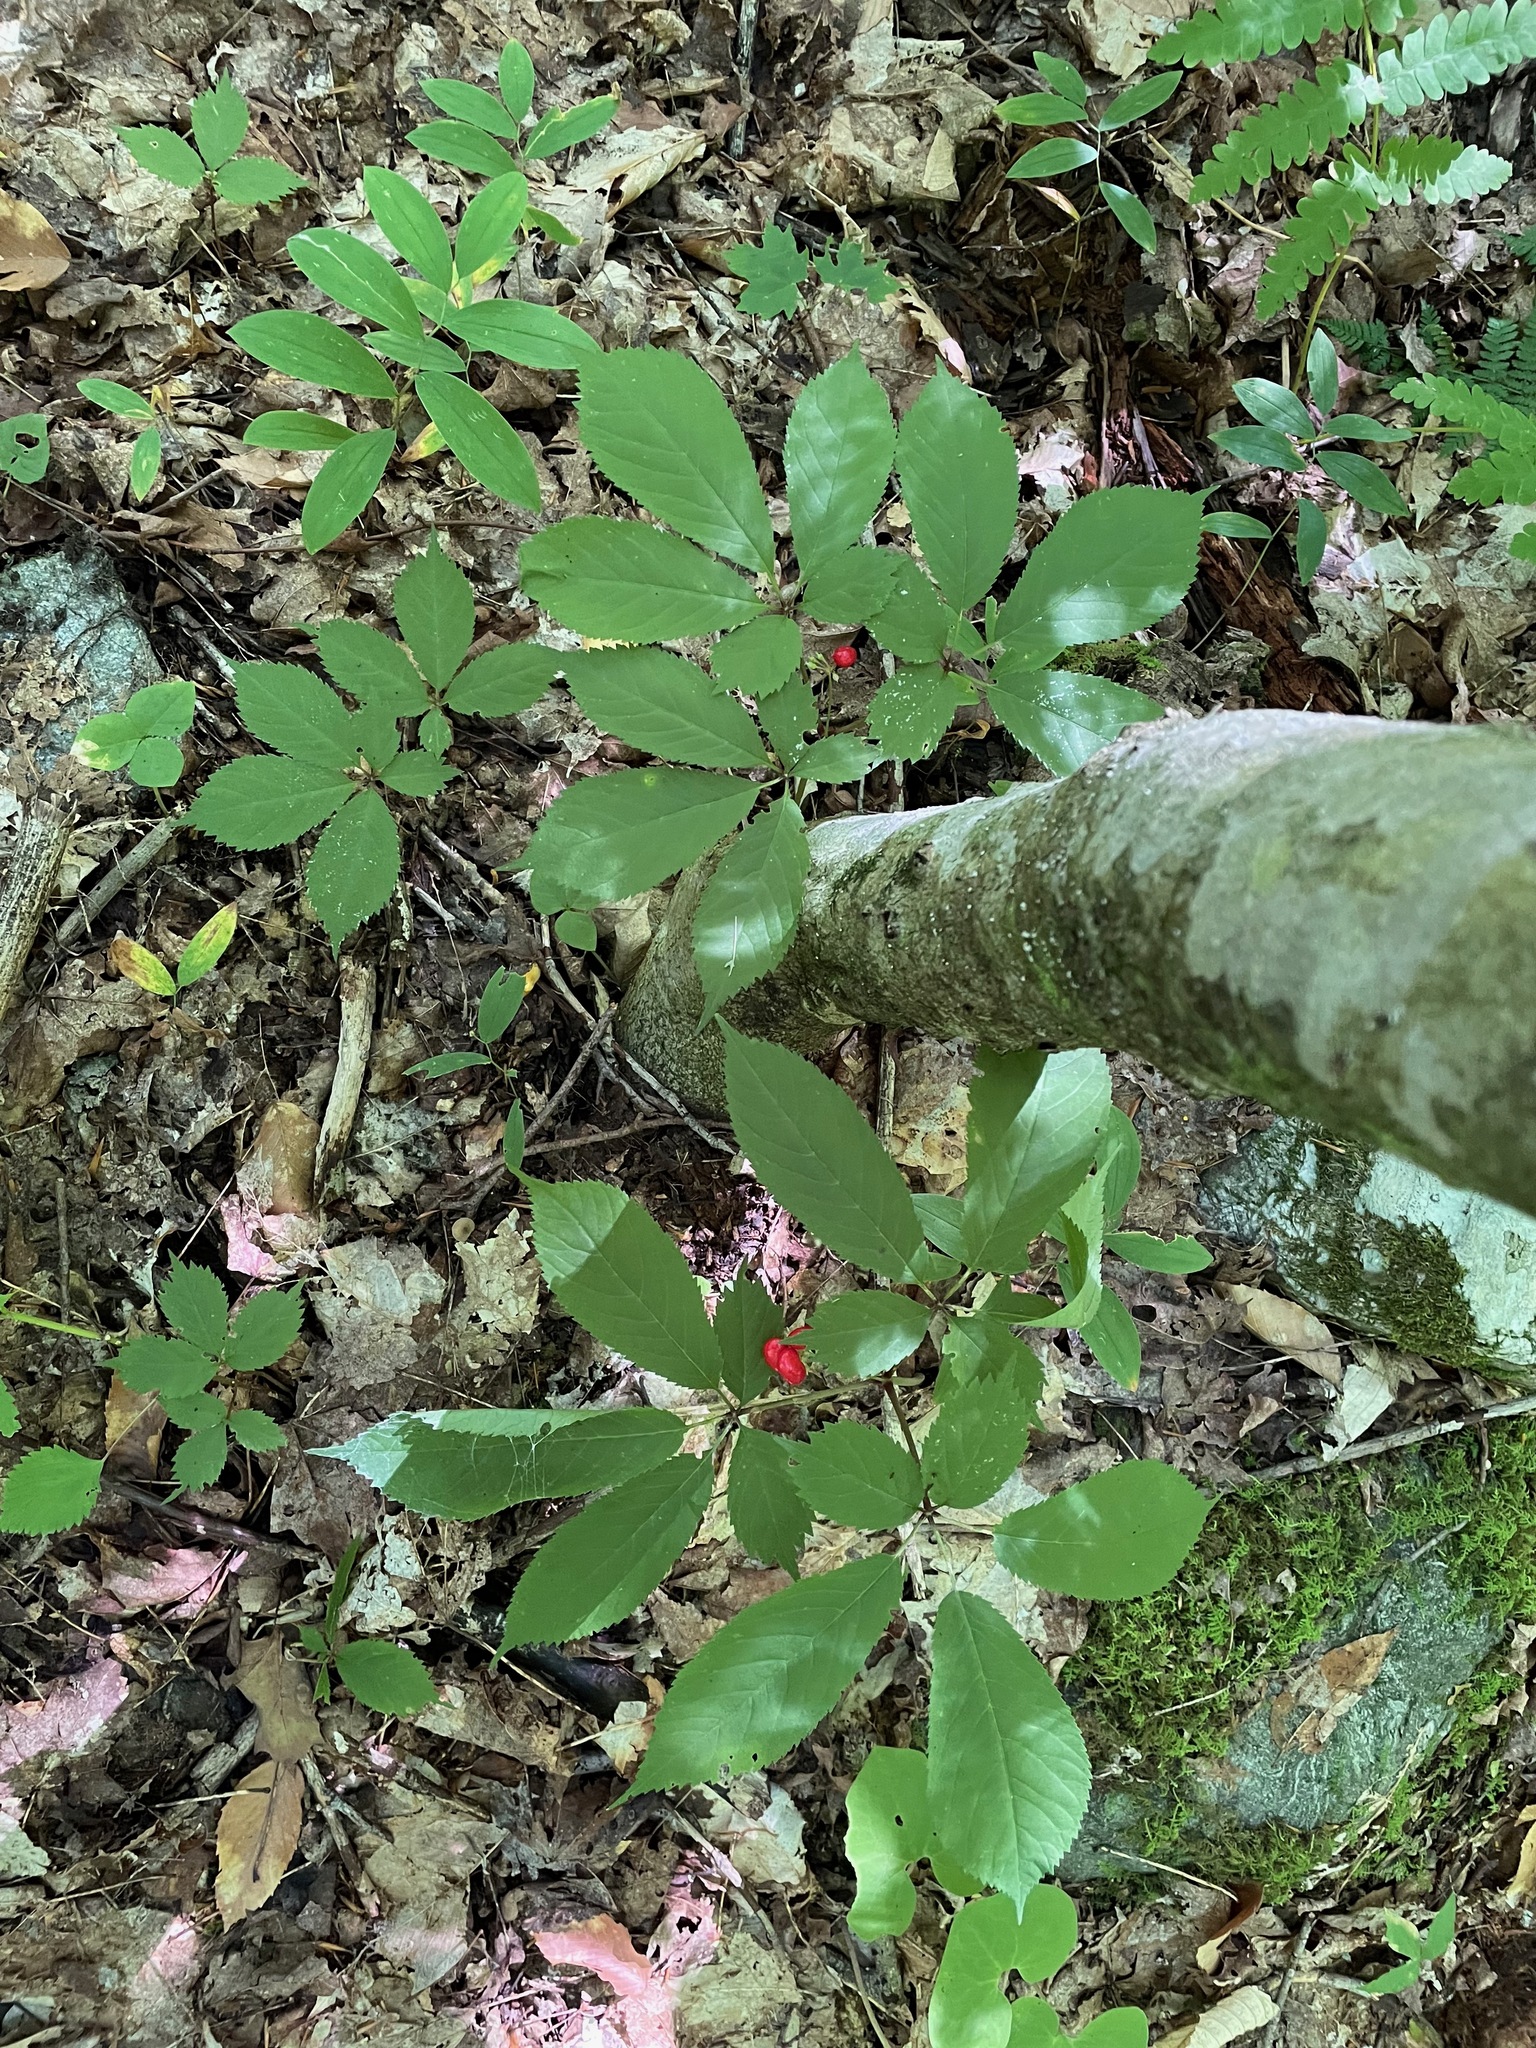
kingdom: Plantae
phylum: Tracheophyta
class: Magnoliopsida
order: Apiales
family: Araliaceae
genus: Panax
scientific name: Panax quinquefolius
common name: American ginseng
